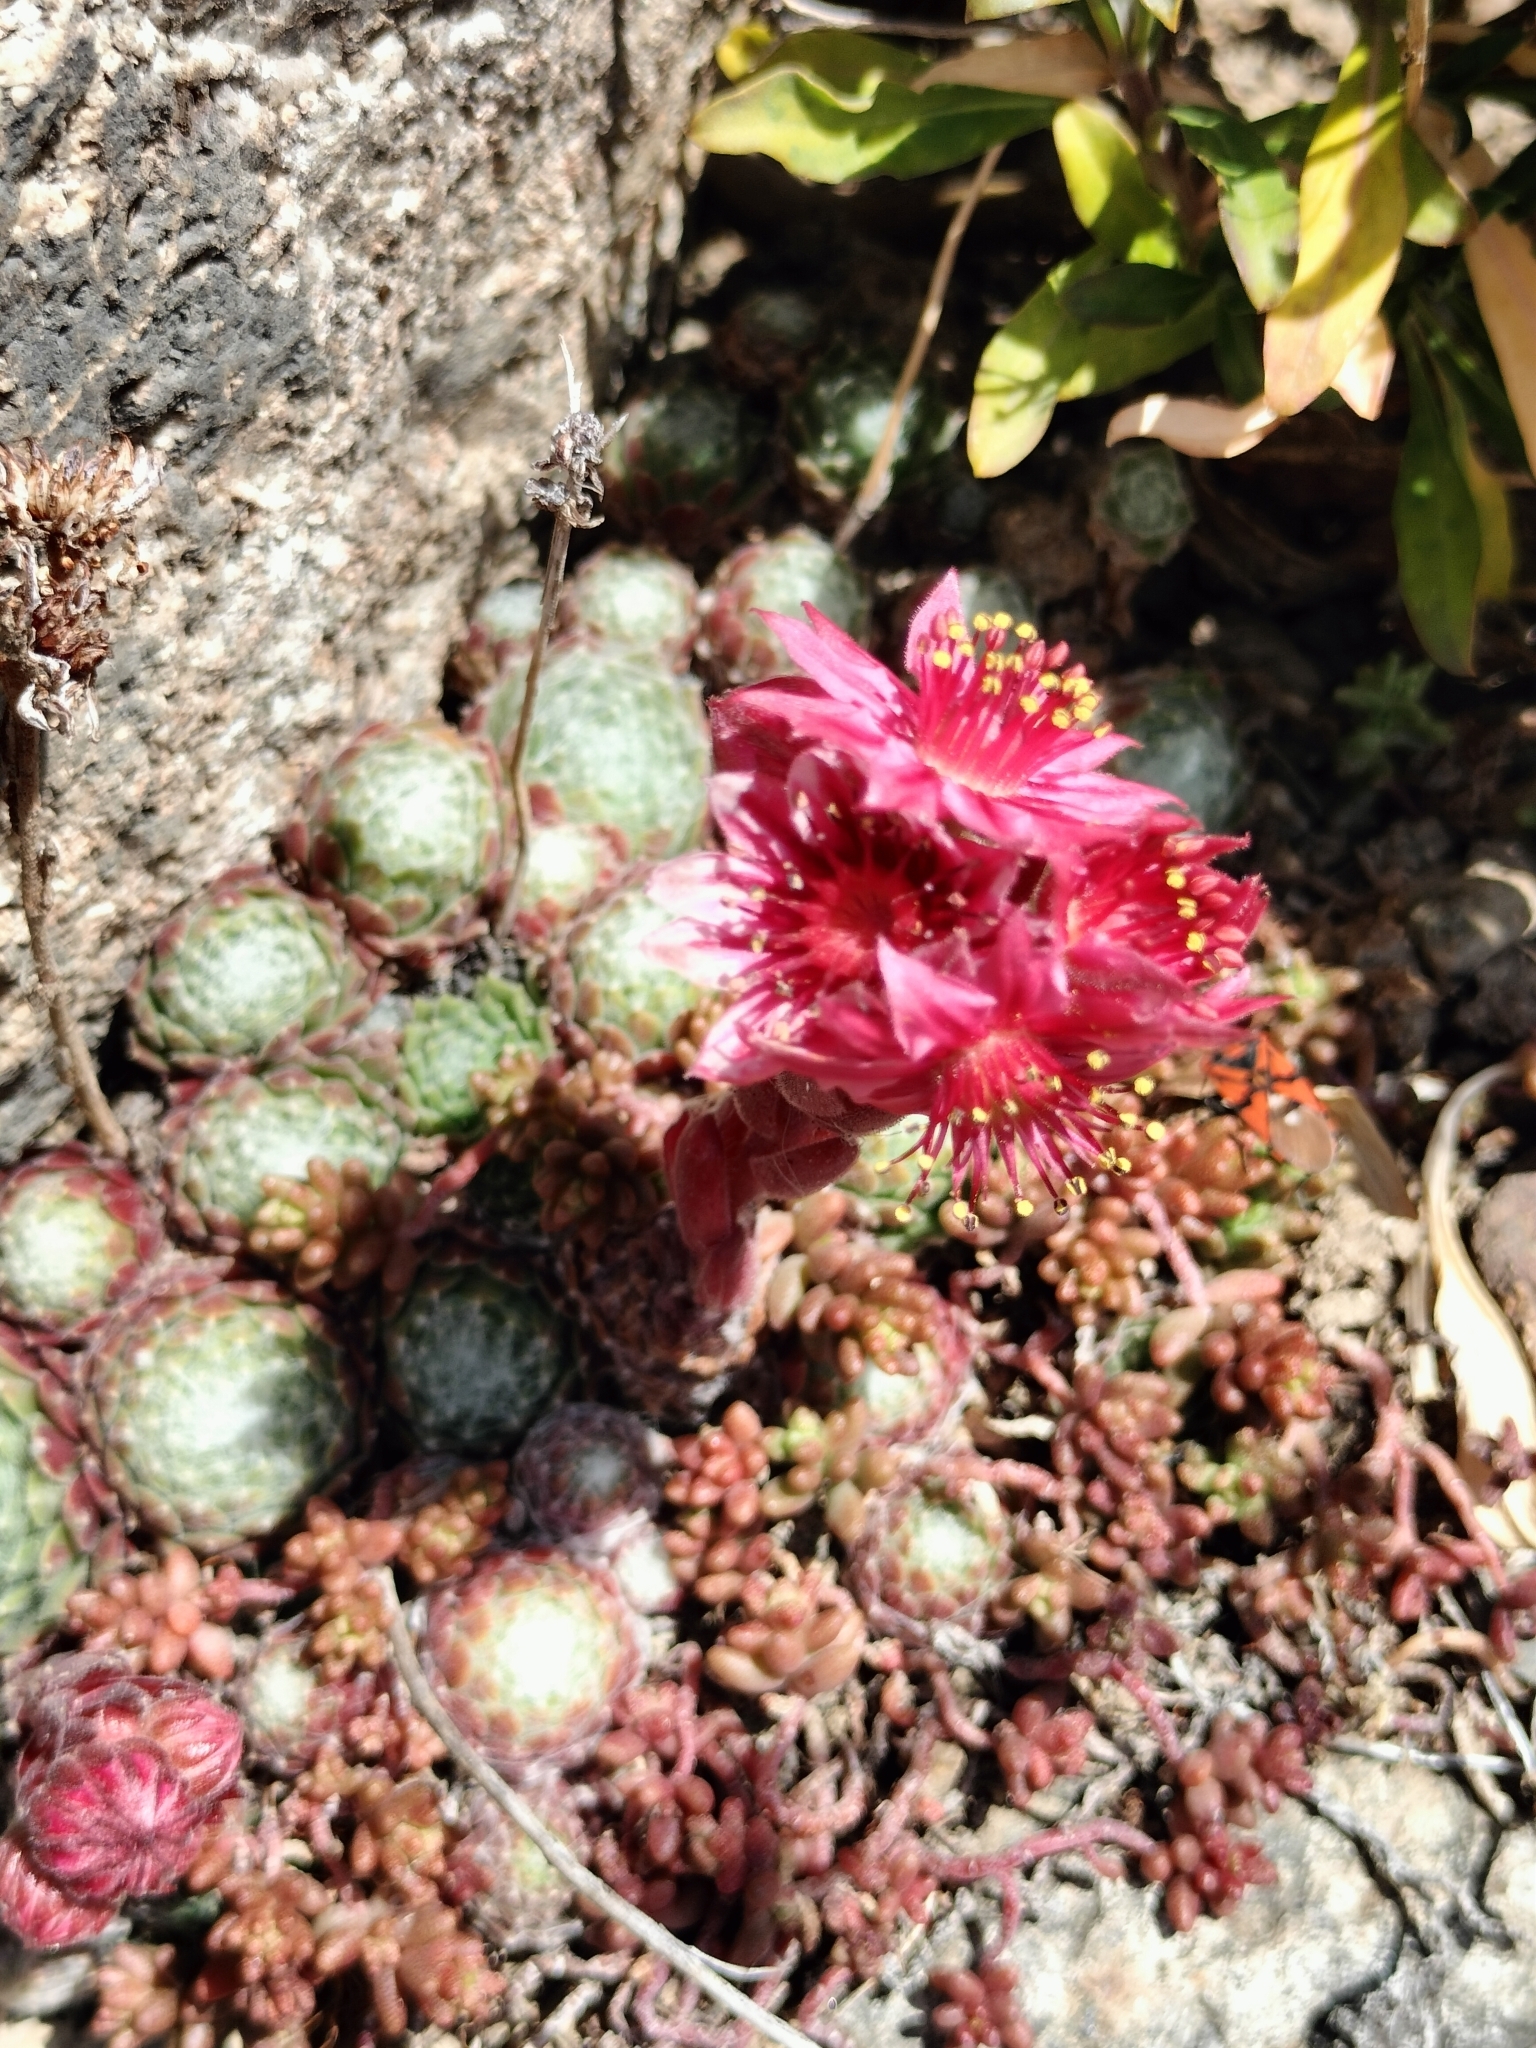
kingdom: Plantae
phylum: Tracheophyta
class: Magnoliopsida
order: Saxifragales
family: Crassulaceae
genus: Sempervivum
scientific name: Sempervivum arachnoideum
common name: Cobweb house-leek
